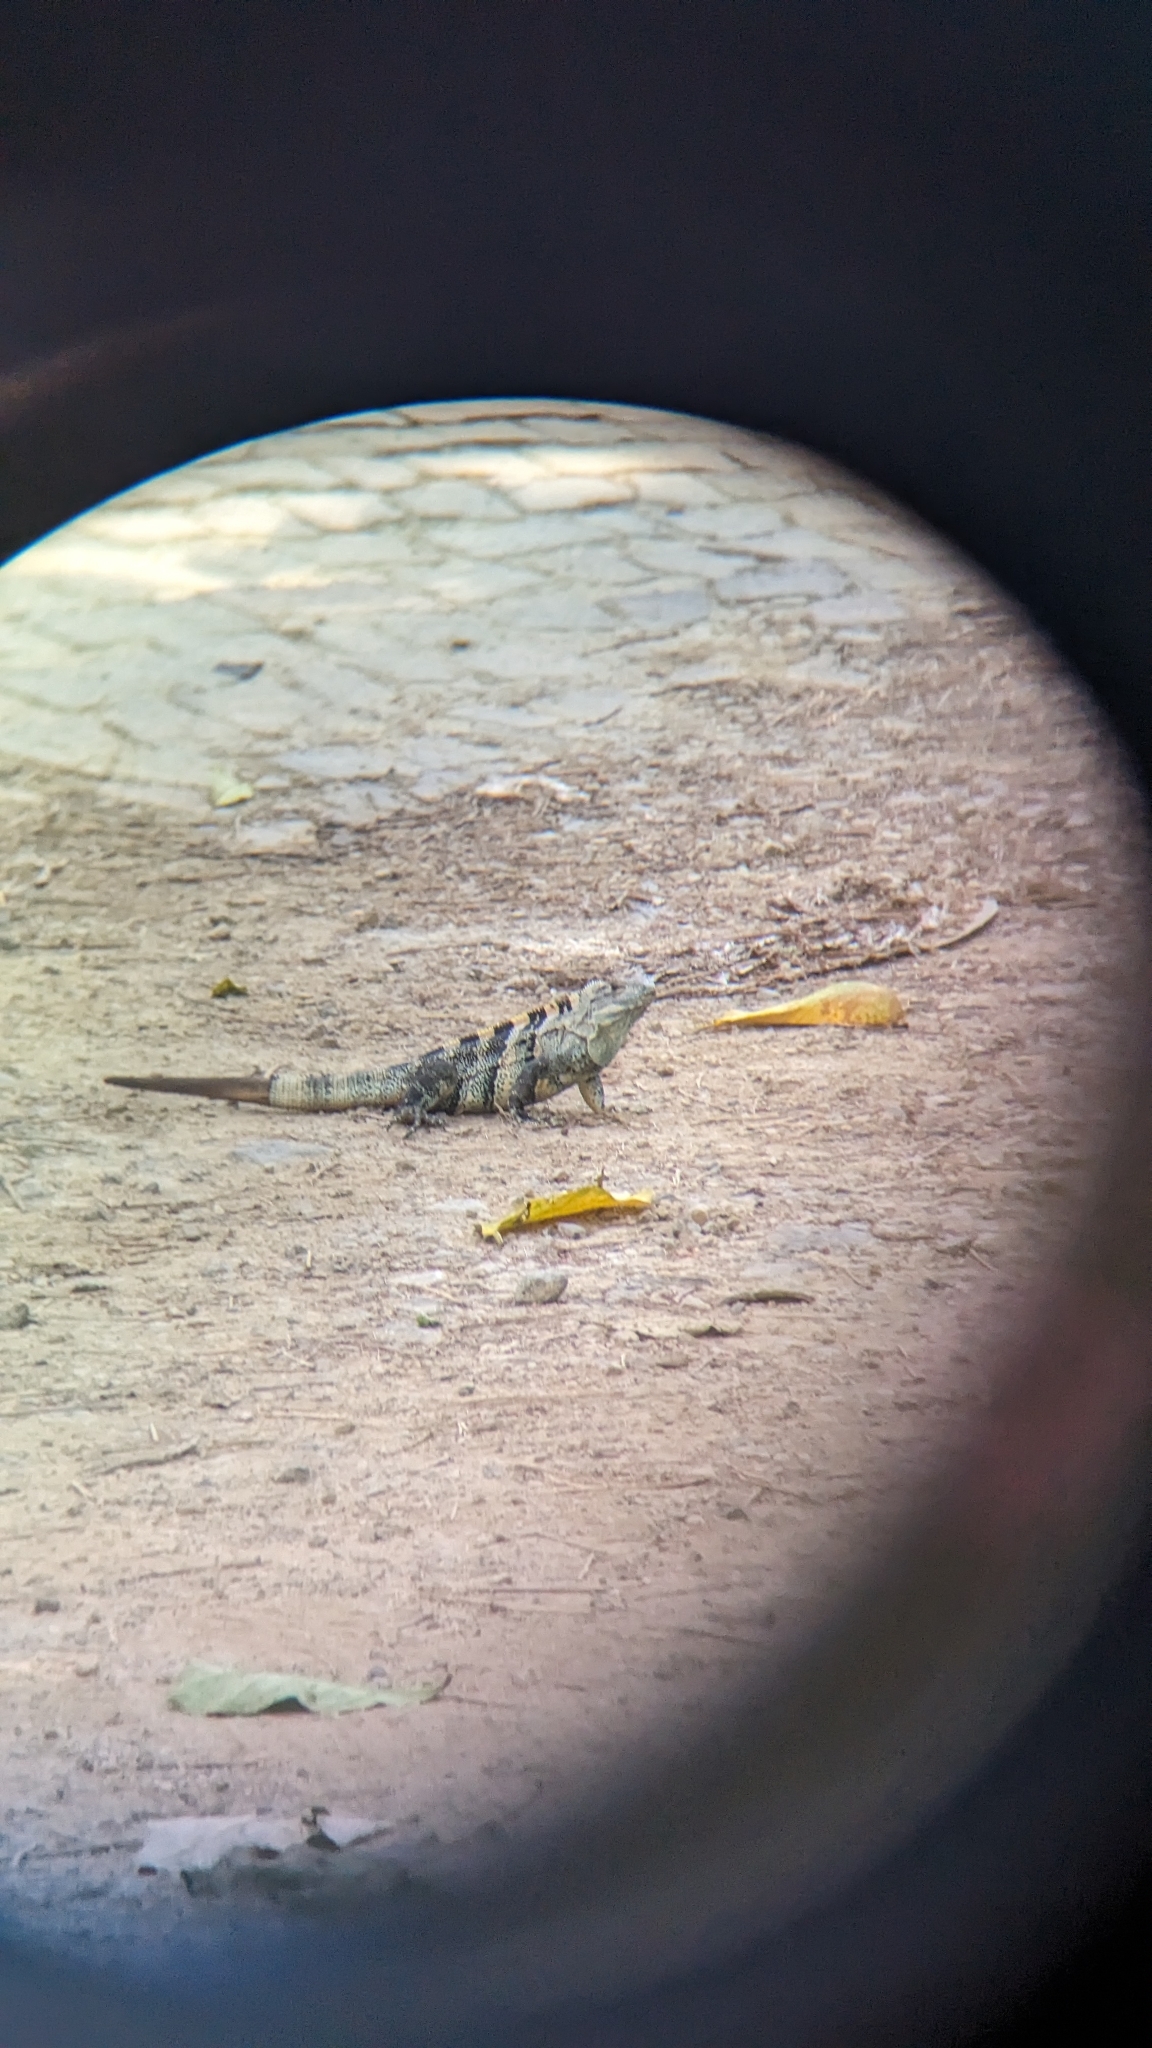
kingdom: Animalia
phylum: Chordata
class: Squamata
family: Iguanidae
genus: Ctenosaura
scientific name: Ctenosaura similis
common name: Black spiny-tailed iguana
